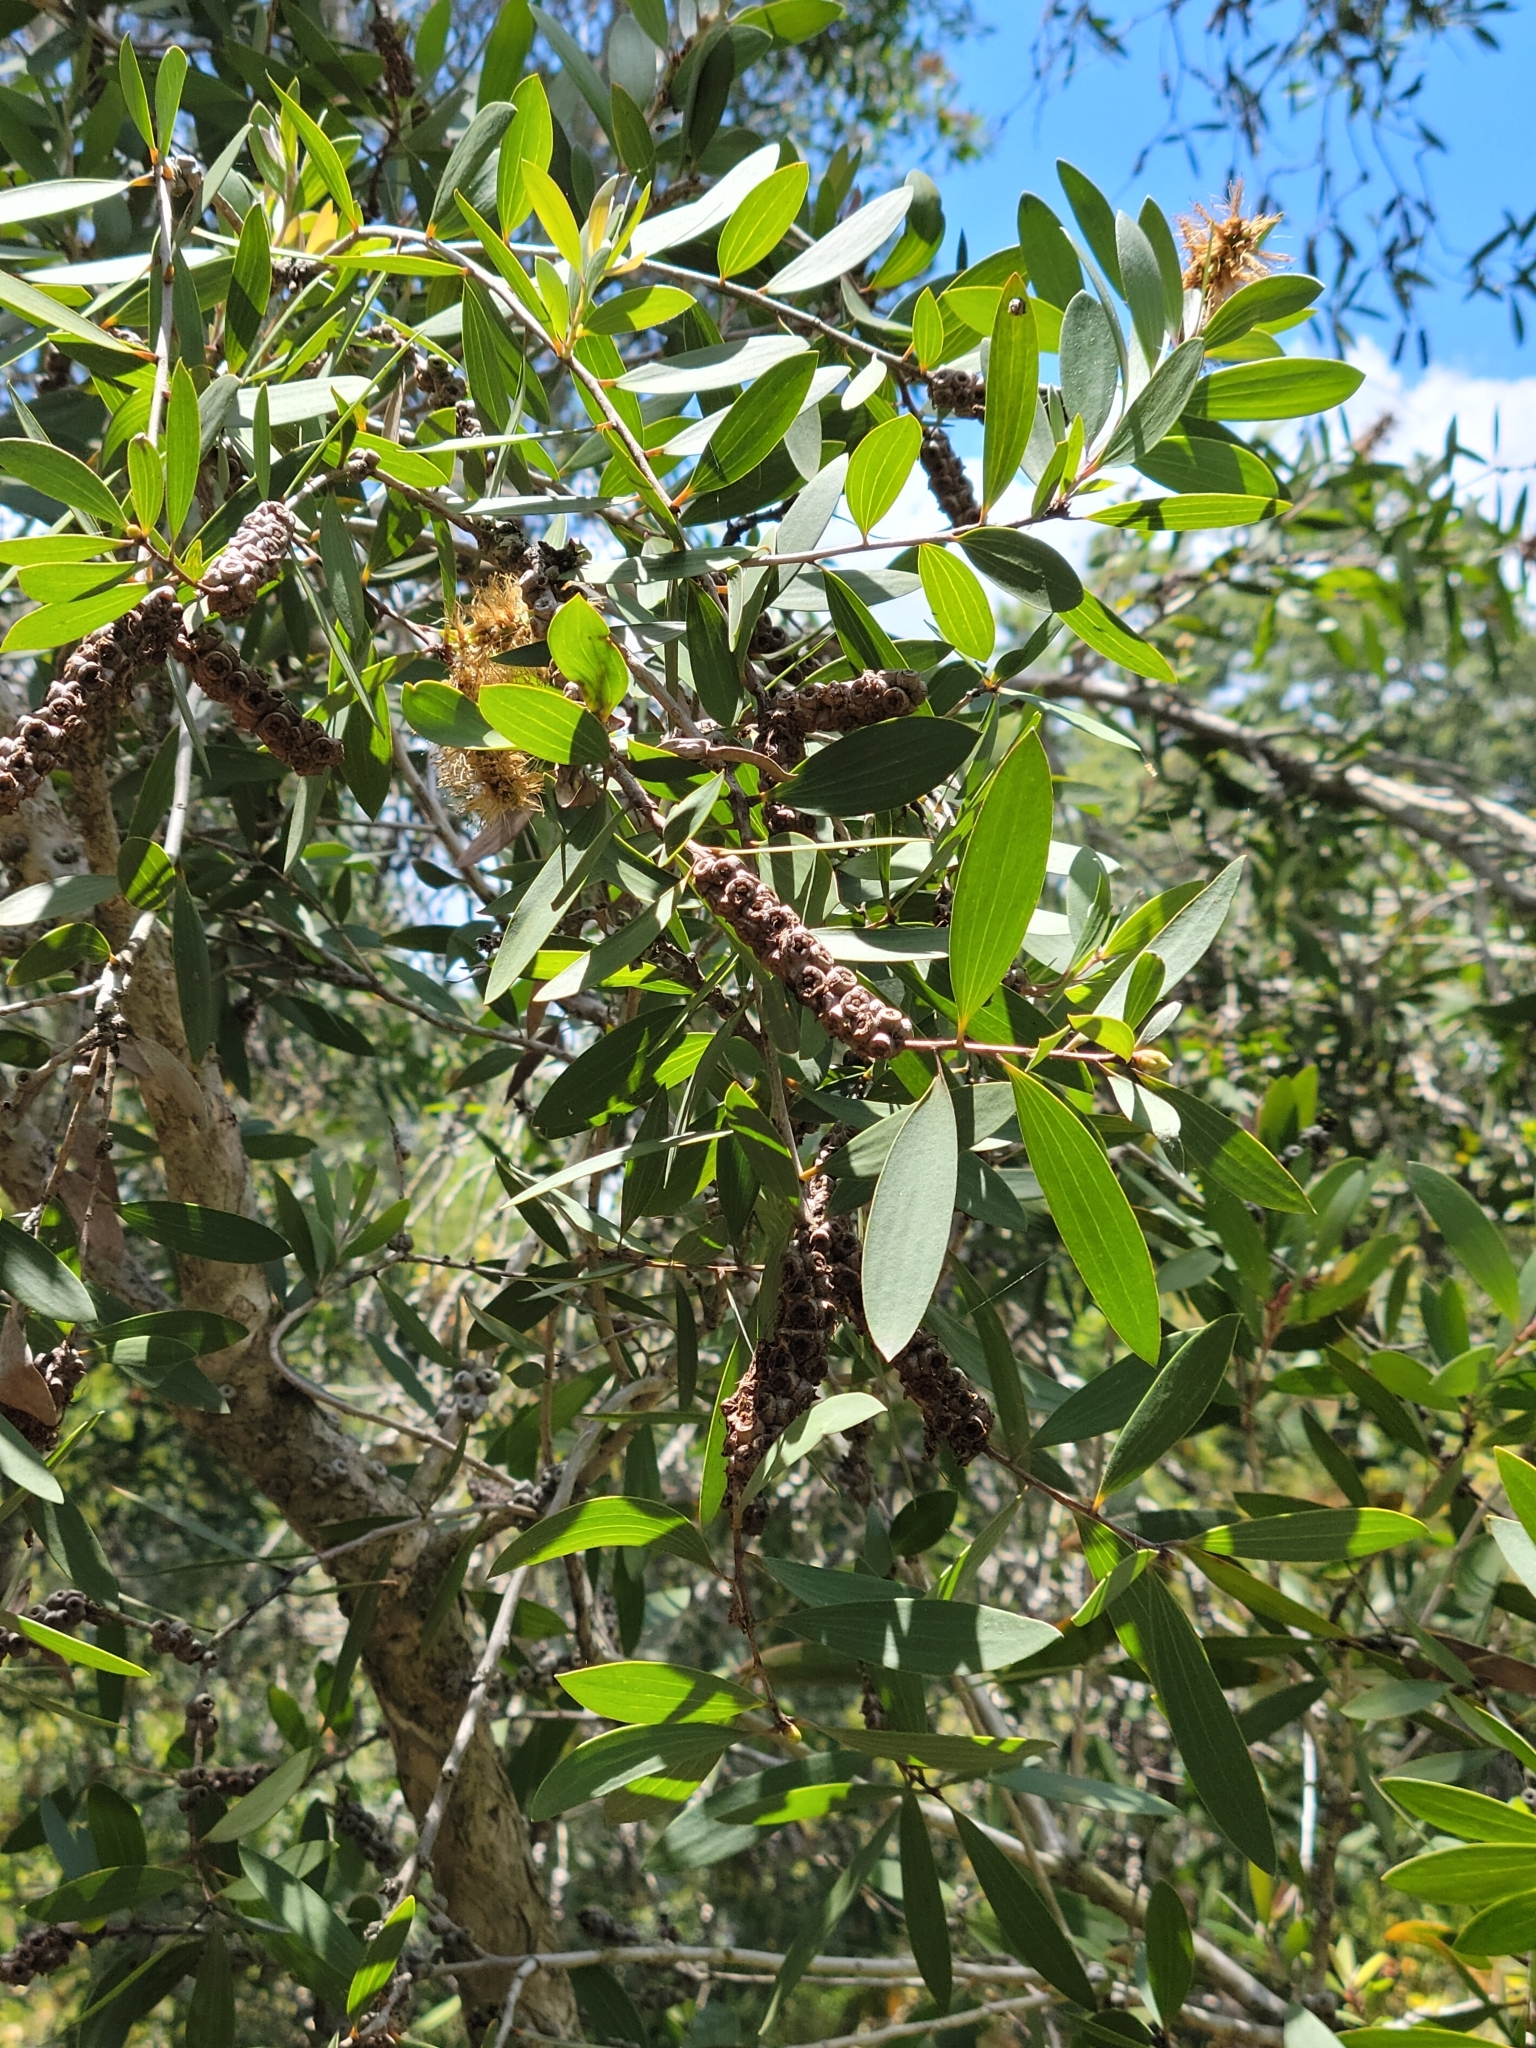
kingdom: Plantae
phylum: Tracheophyta
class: Magnoliopsida
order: Myrtales
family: Myrtaceae
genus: Melaleuca
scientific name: Melaleuca quinquenervia
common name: Punktree
